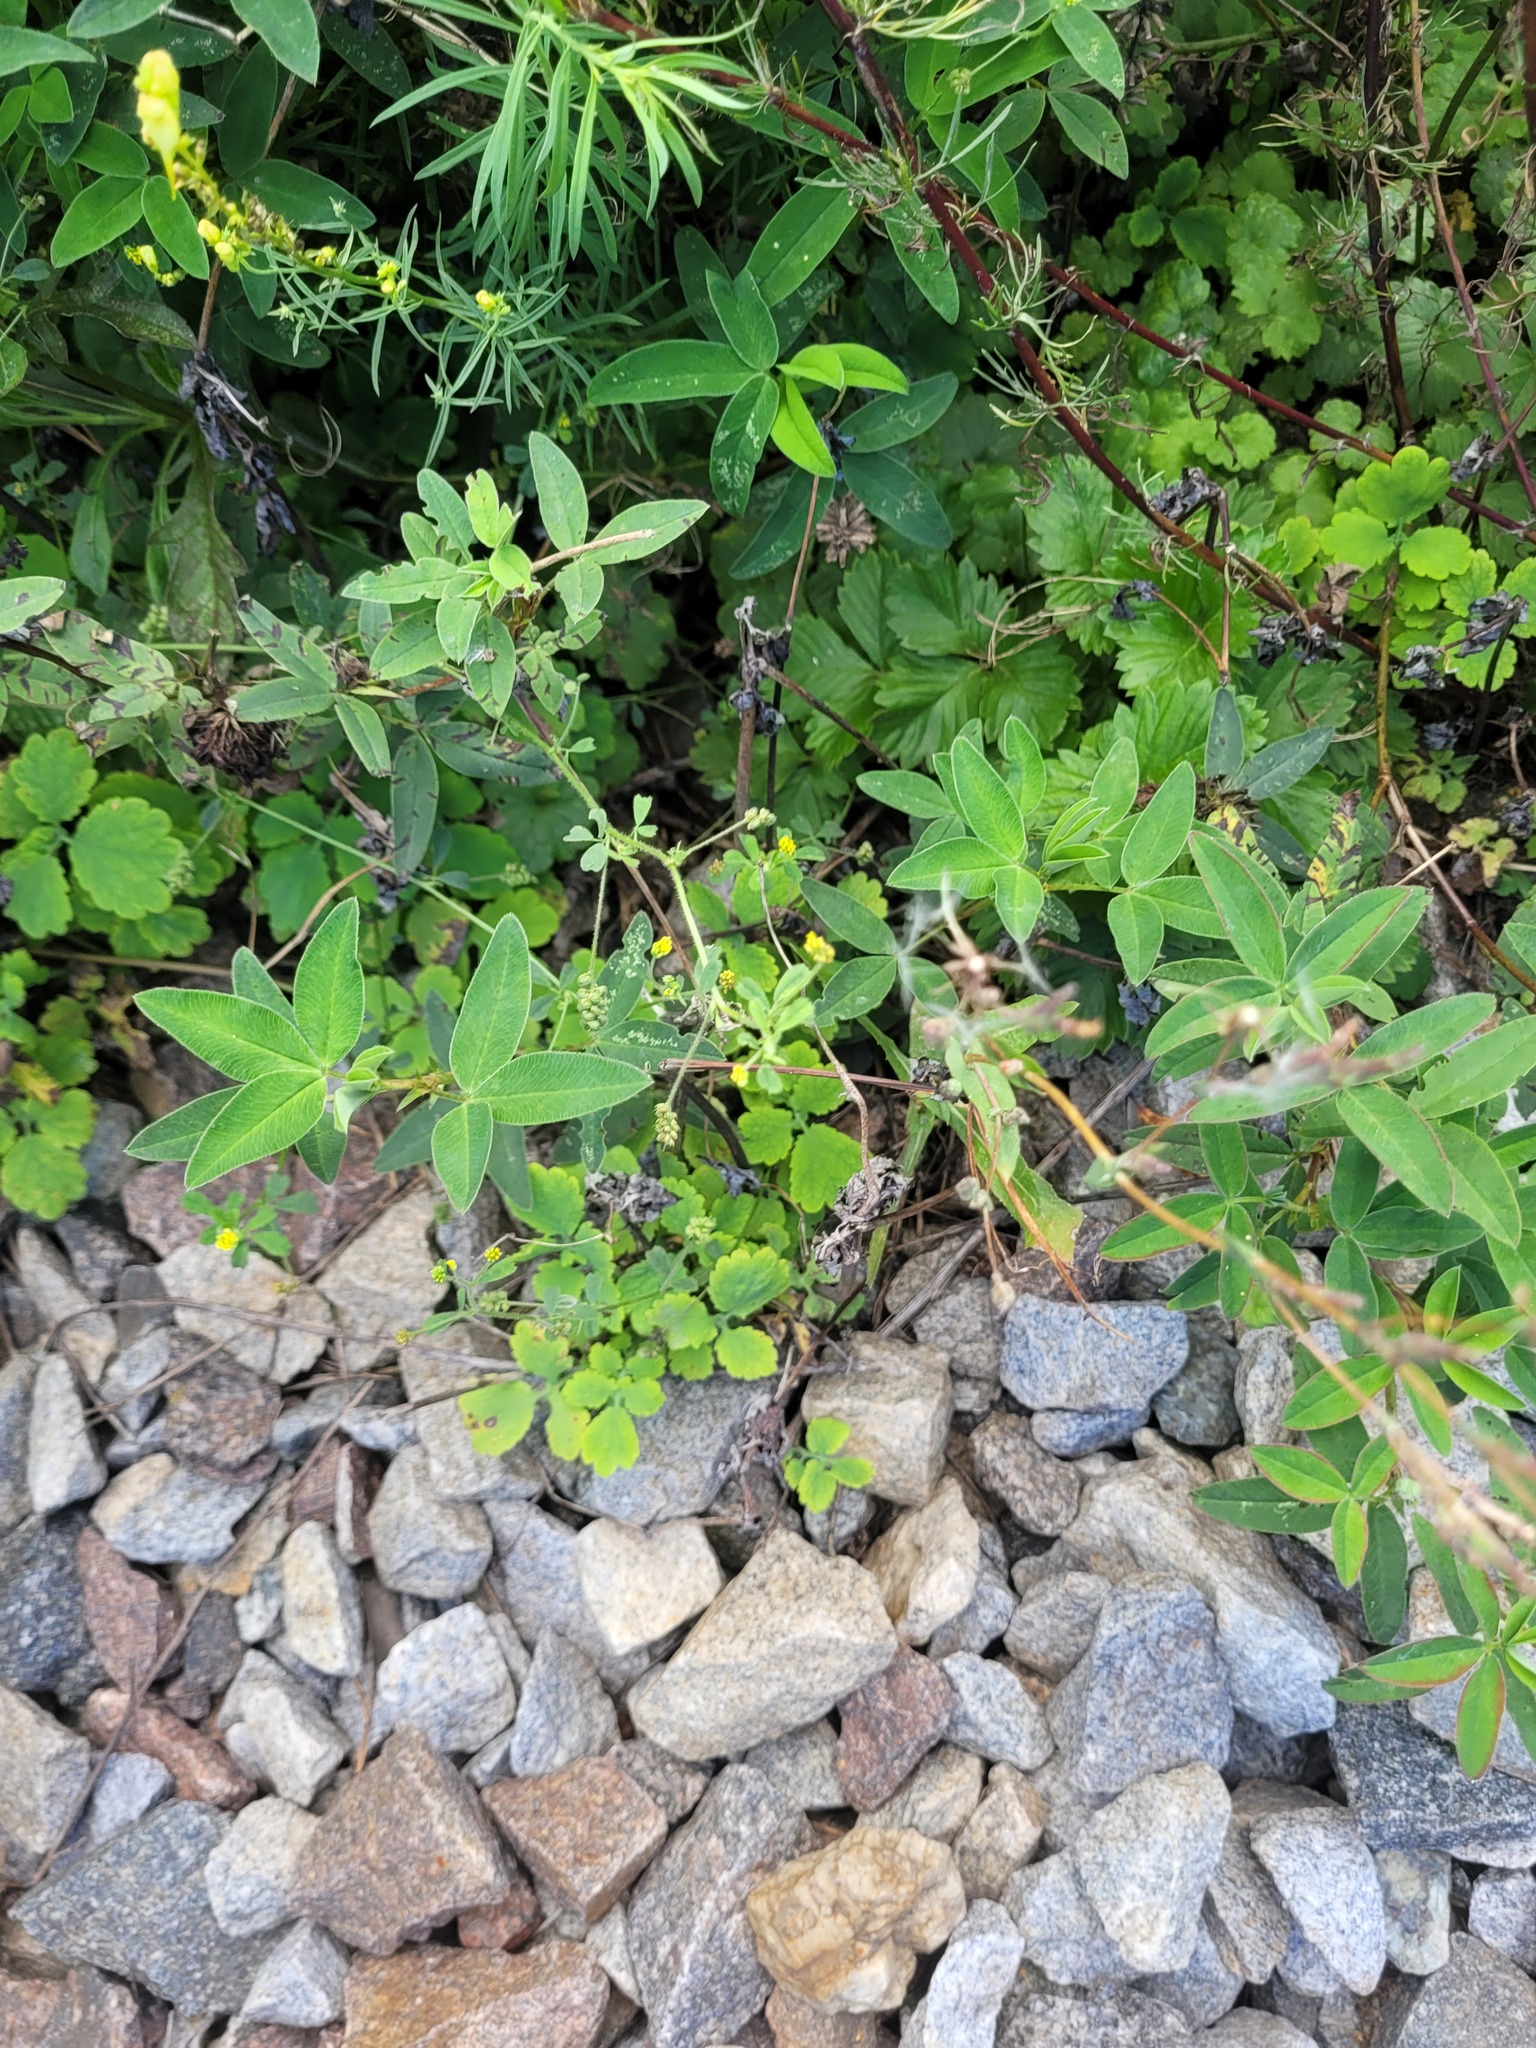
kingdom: Plantae
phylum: Tracheophyta
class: Magnoliopsida
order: Fabales
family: Fabaceae
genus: Medicago
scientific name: Medicago lupulina
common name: Black medick
